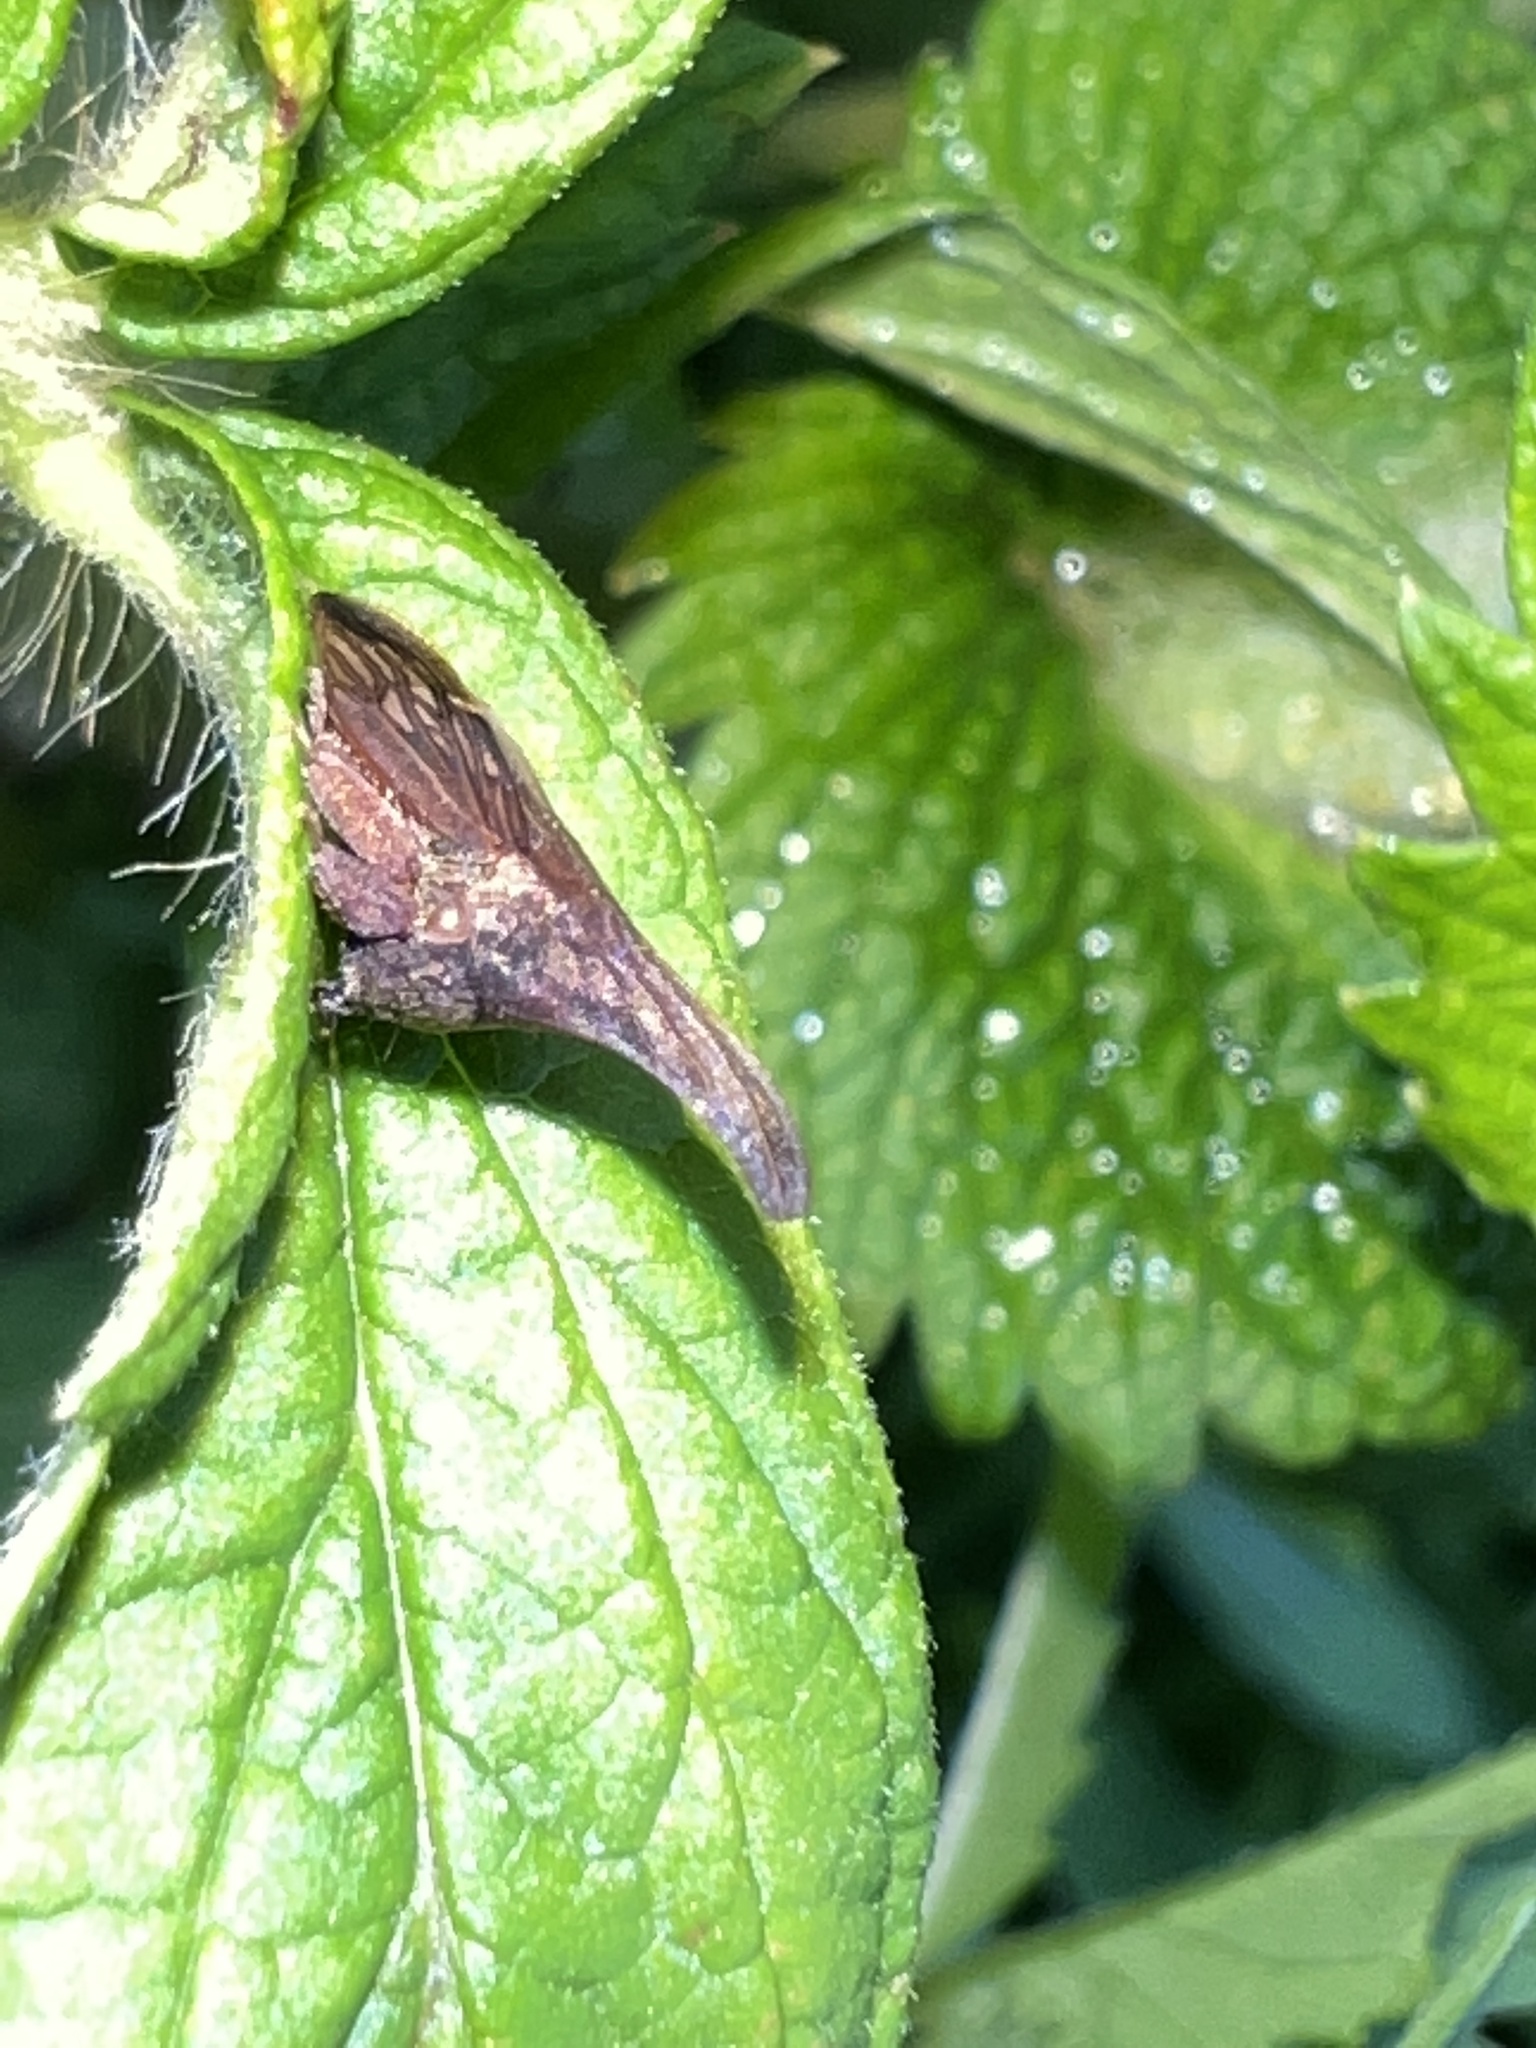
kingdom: Animalia
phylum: Arthropoda
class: Insecta
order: Hemiptera
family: Membracidae
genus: Enchenopa
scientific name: Enchenopa latipes
